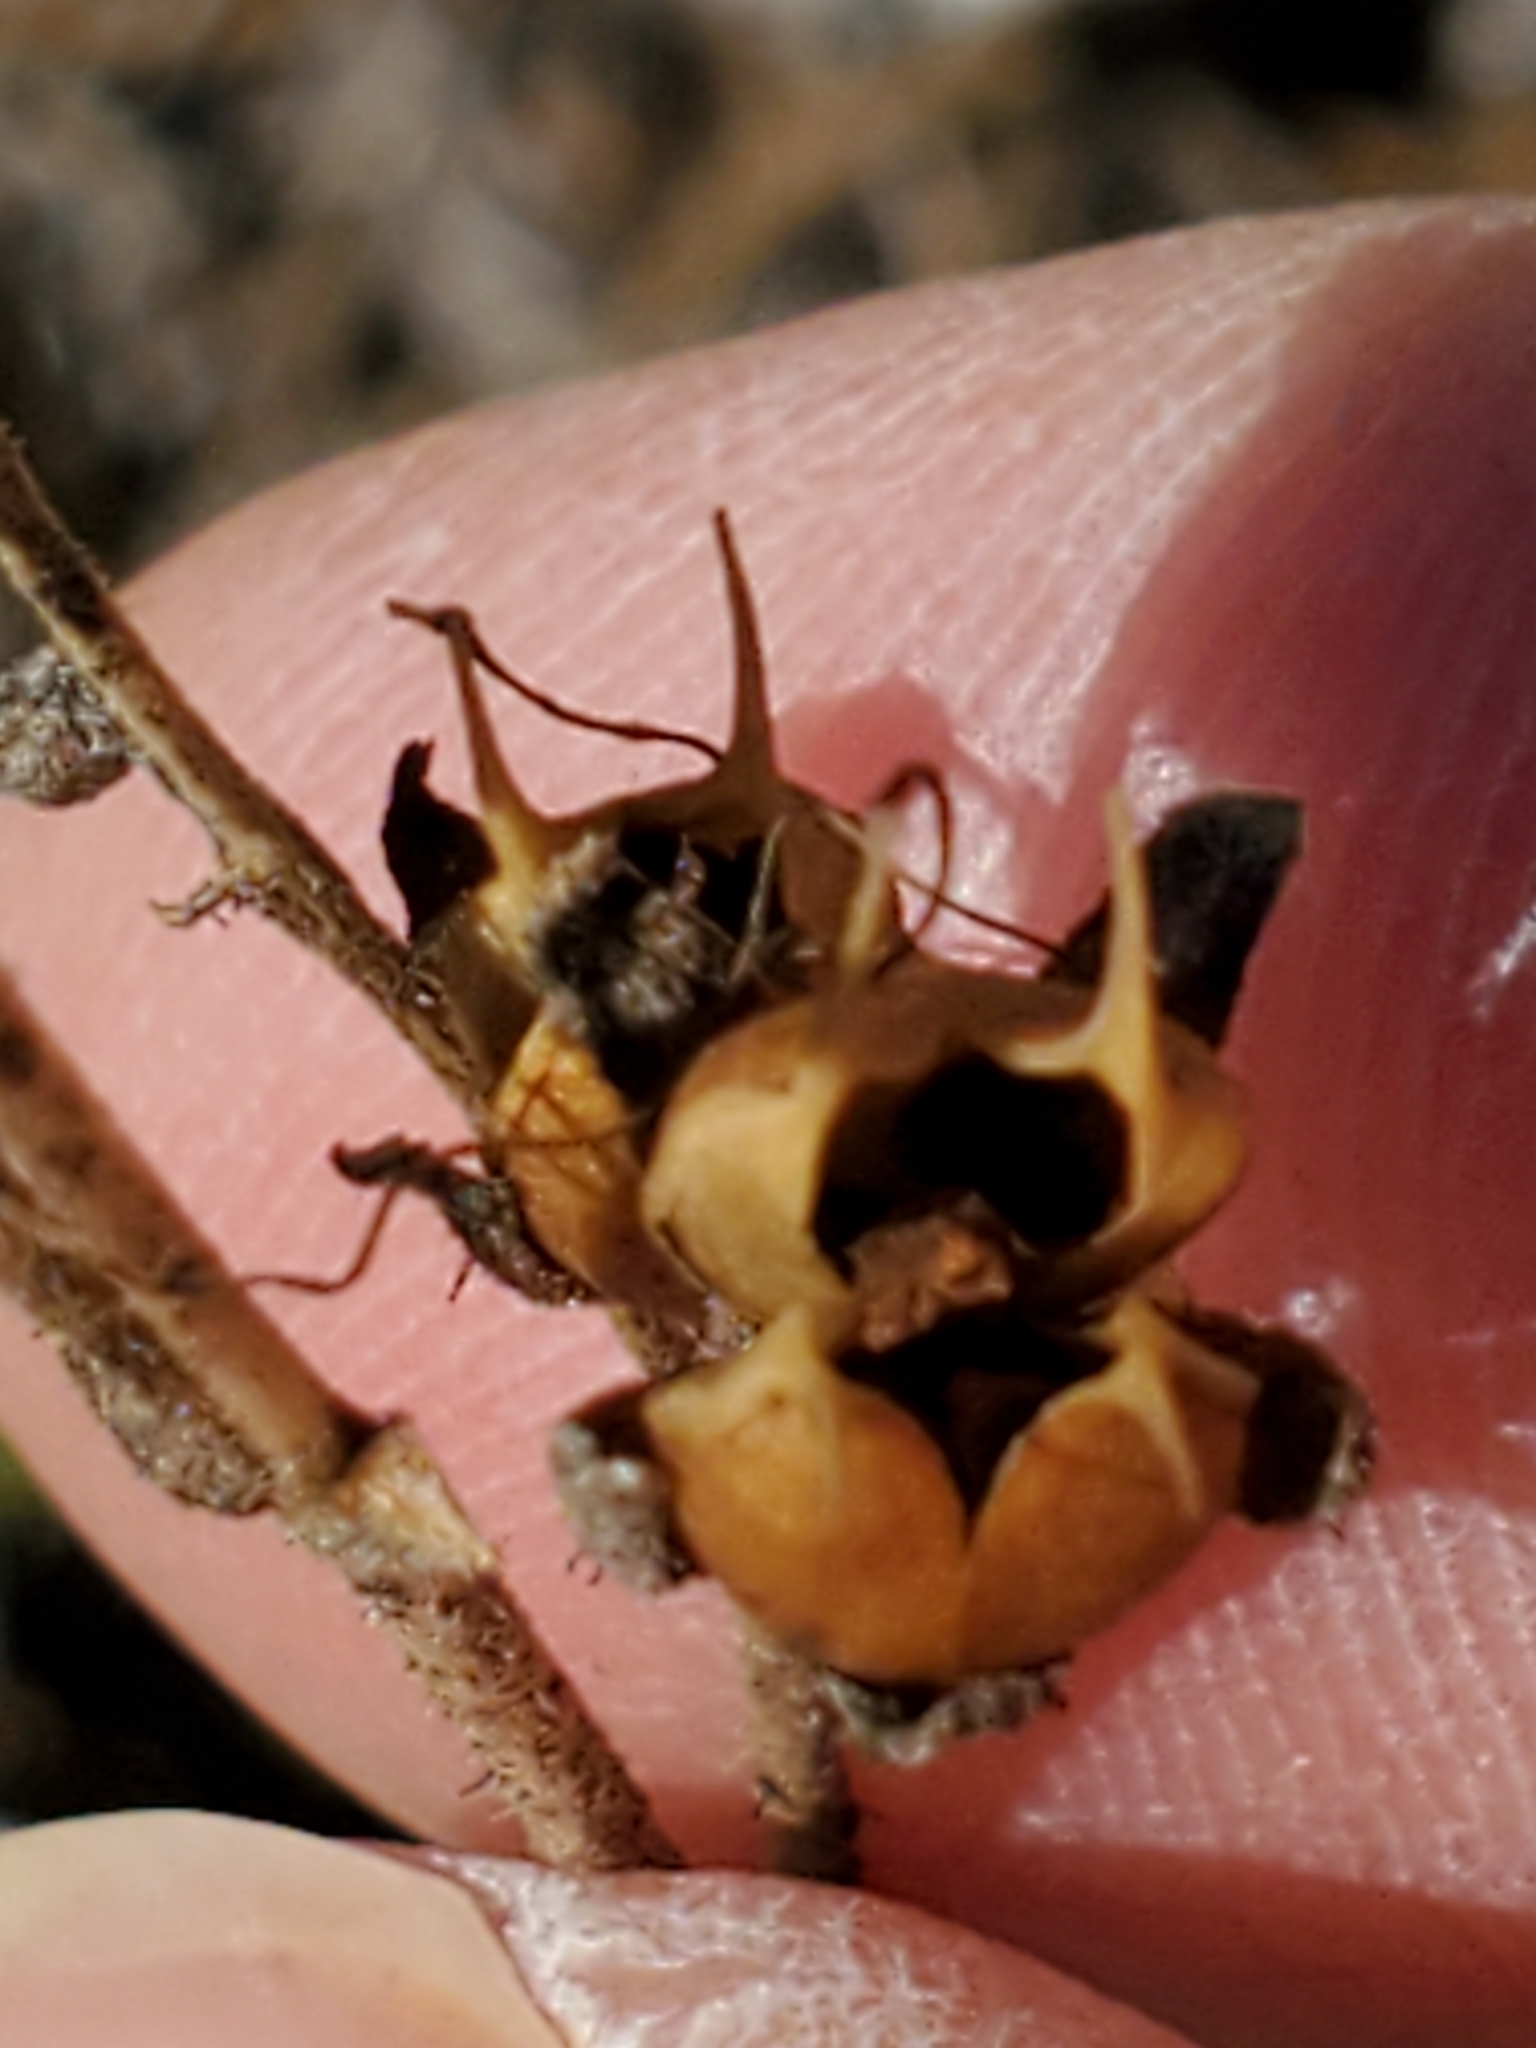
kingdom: Plantae
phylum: Tracheophyta
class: Magnoliopsida
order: Lamiales
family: Plantaginaceae
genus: Penstemon
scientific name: Penstemon baccharifolius
